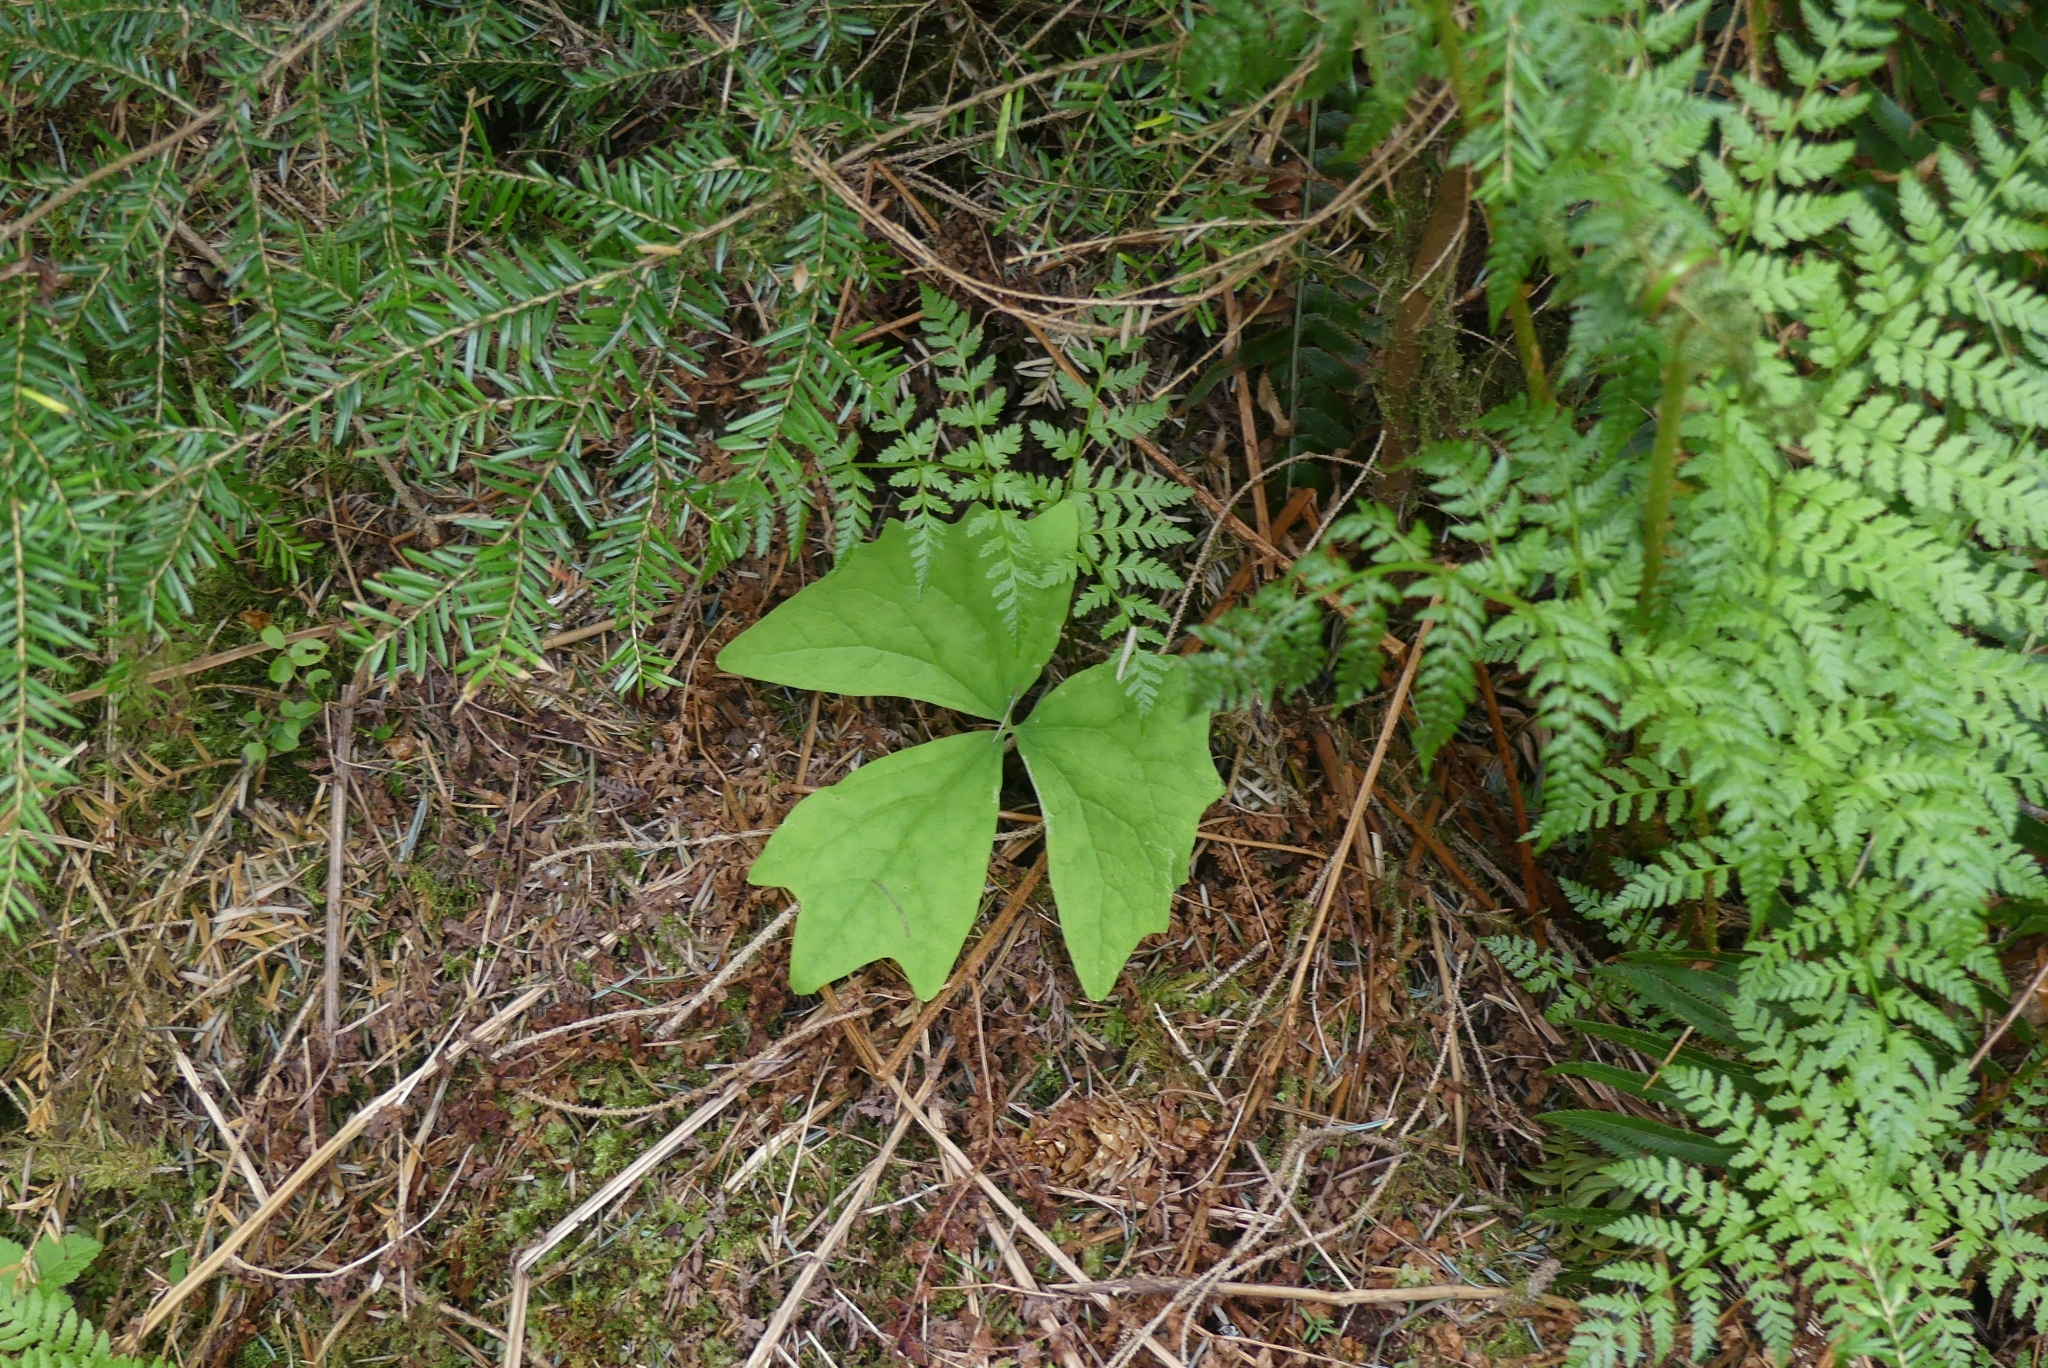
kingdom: Plantae
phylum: Tracheophyta
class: Magnoliopsida
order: Ranunculales
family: Berberidaceae
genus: Achlys
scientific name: Achlys triphylla
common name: Vanilla-leaf
